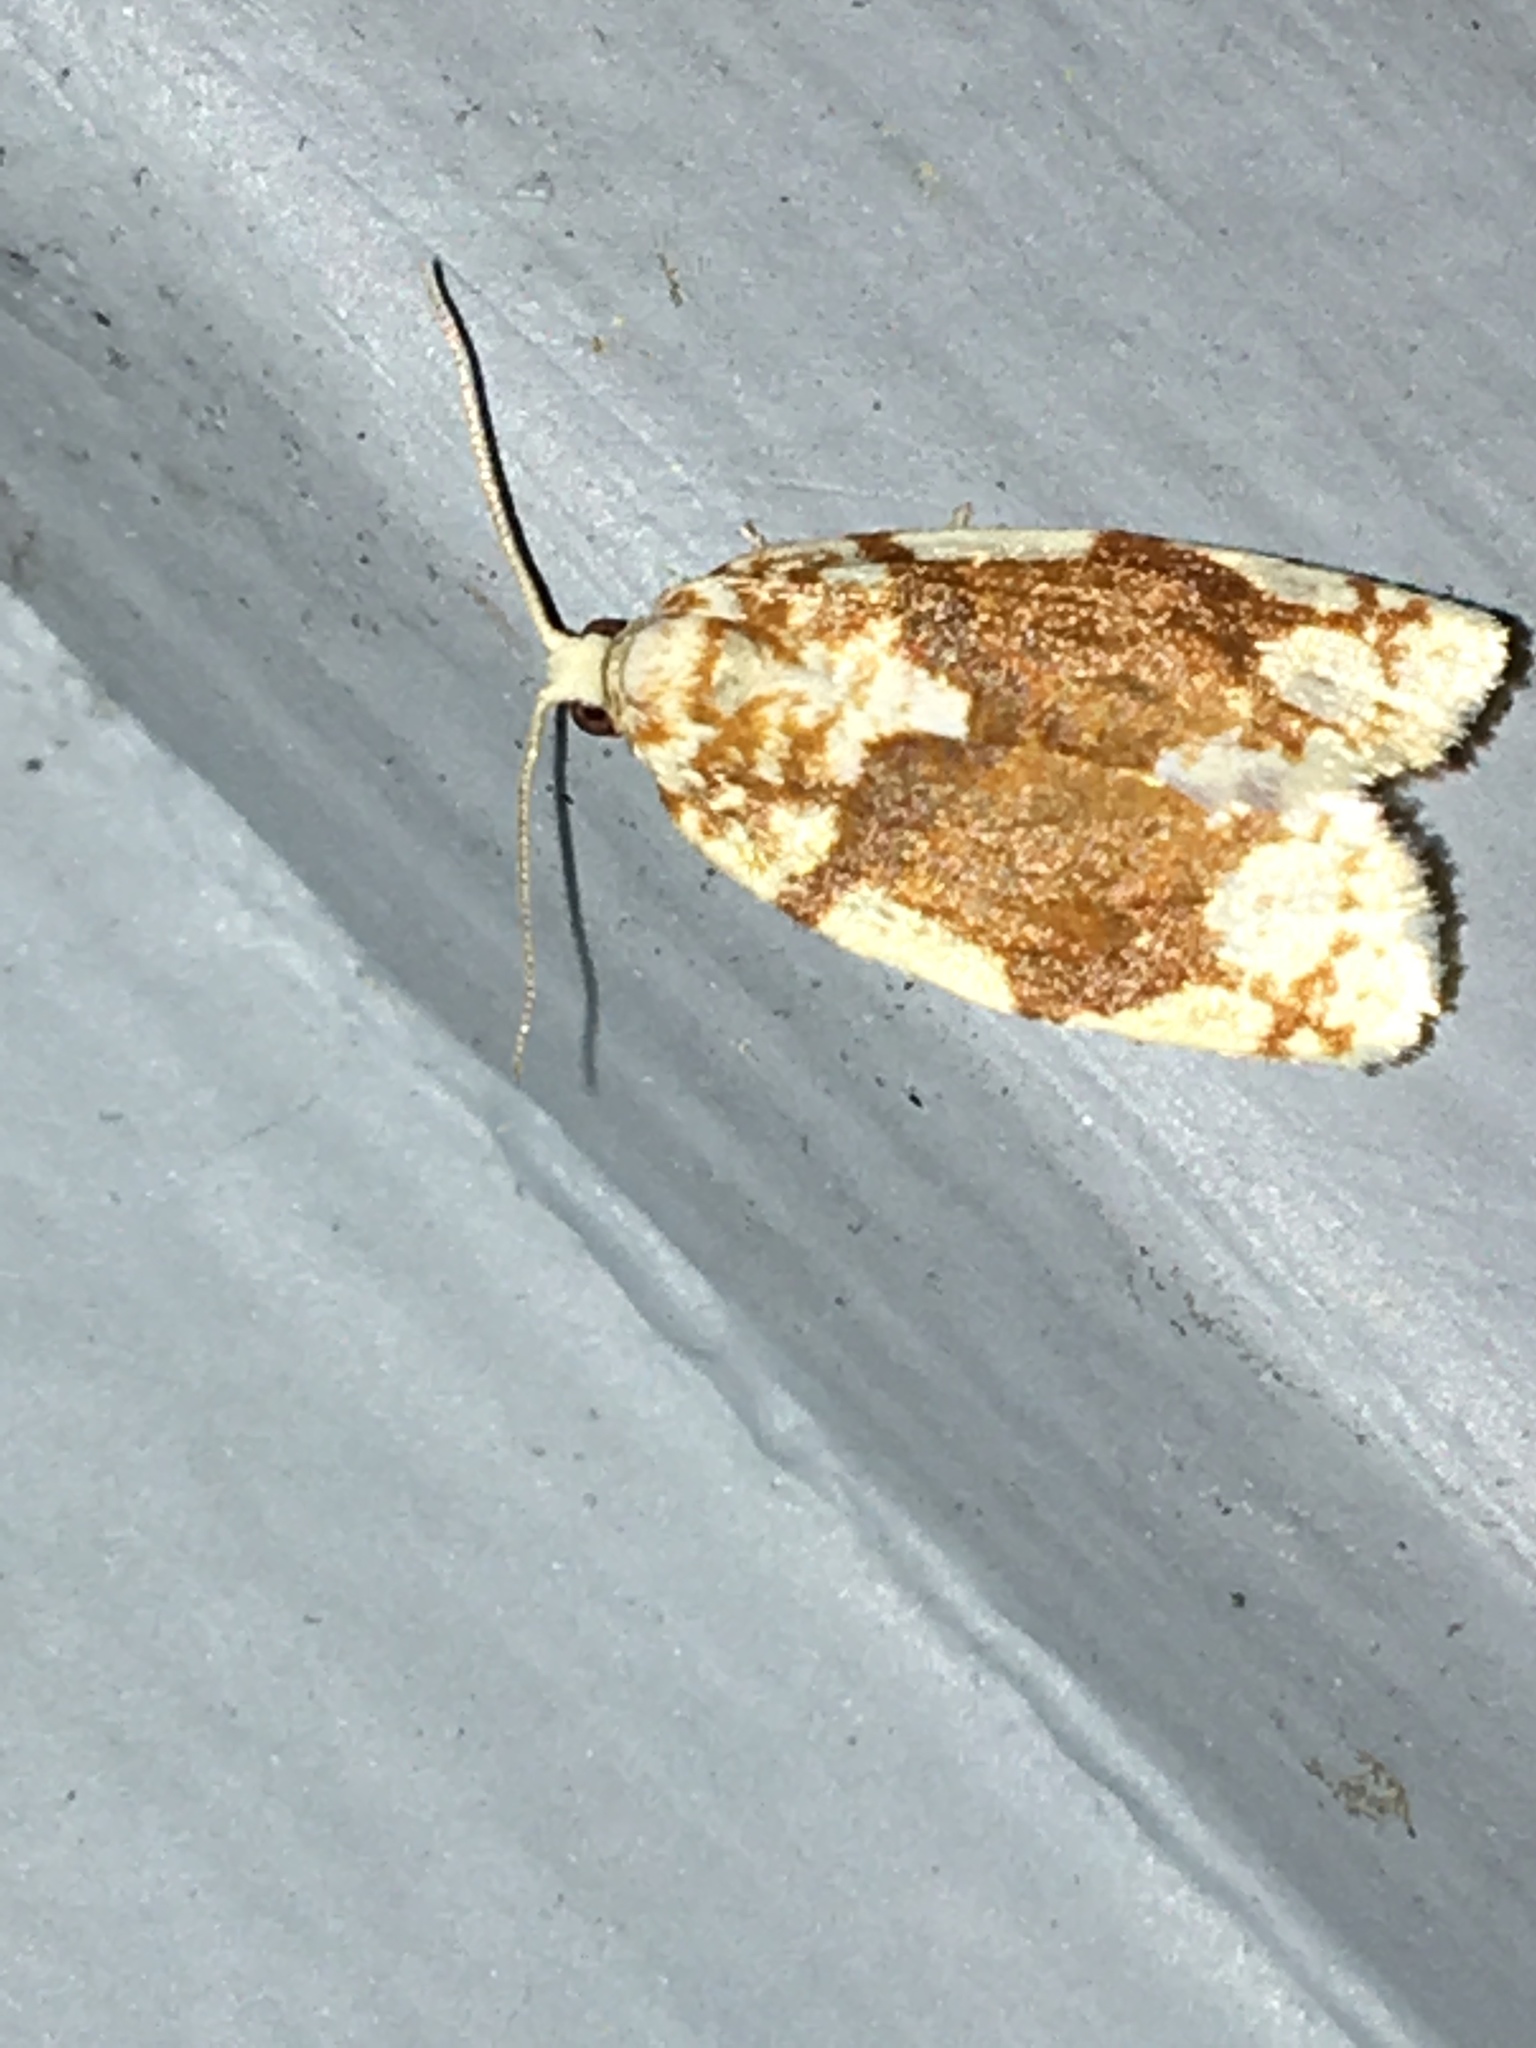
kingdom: Animalia
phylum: Arthropoda
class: Insecta
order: Lepidoptera
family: Tortricidae
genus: Argyrotaenia
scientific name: Argyrotaenia alisellana
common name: White-spotted leafroller moth
